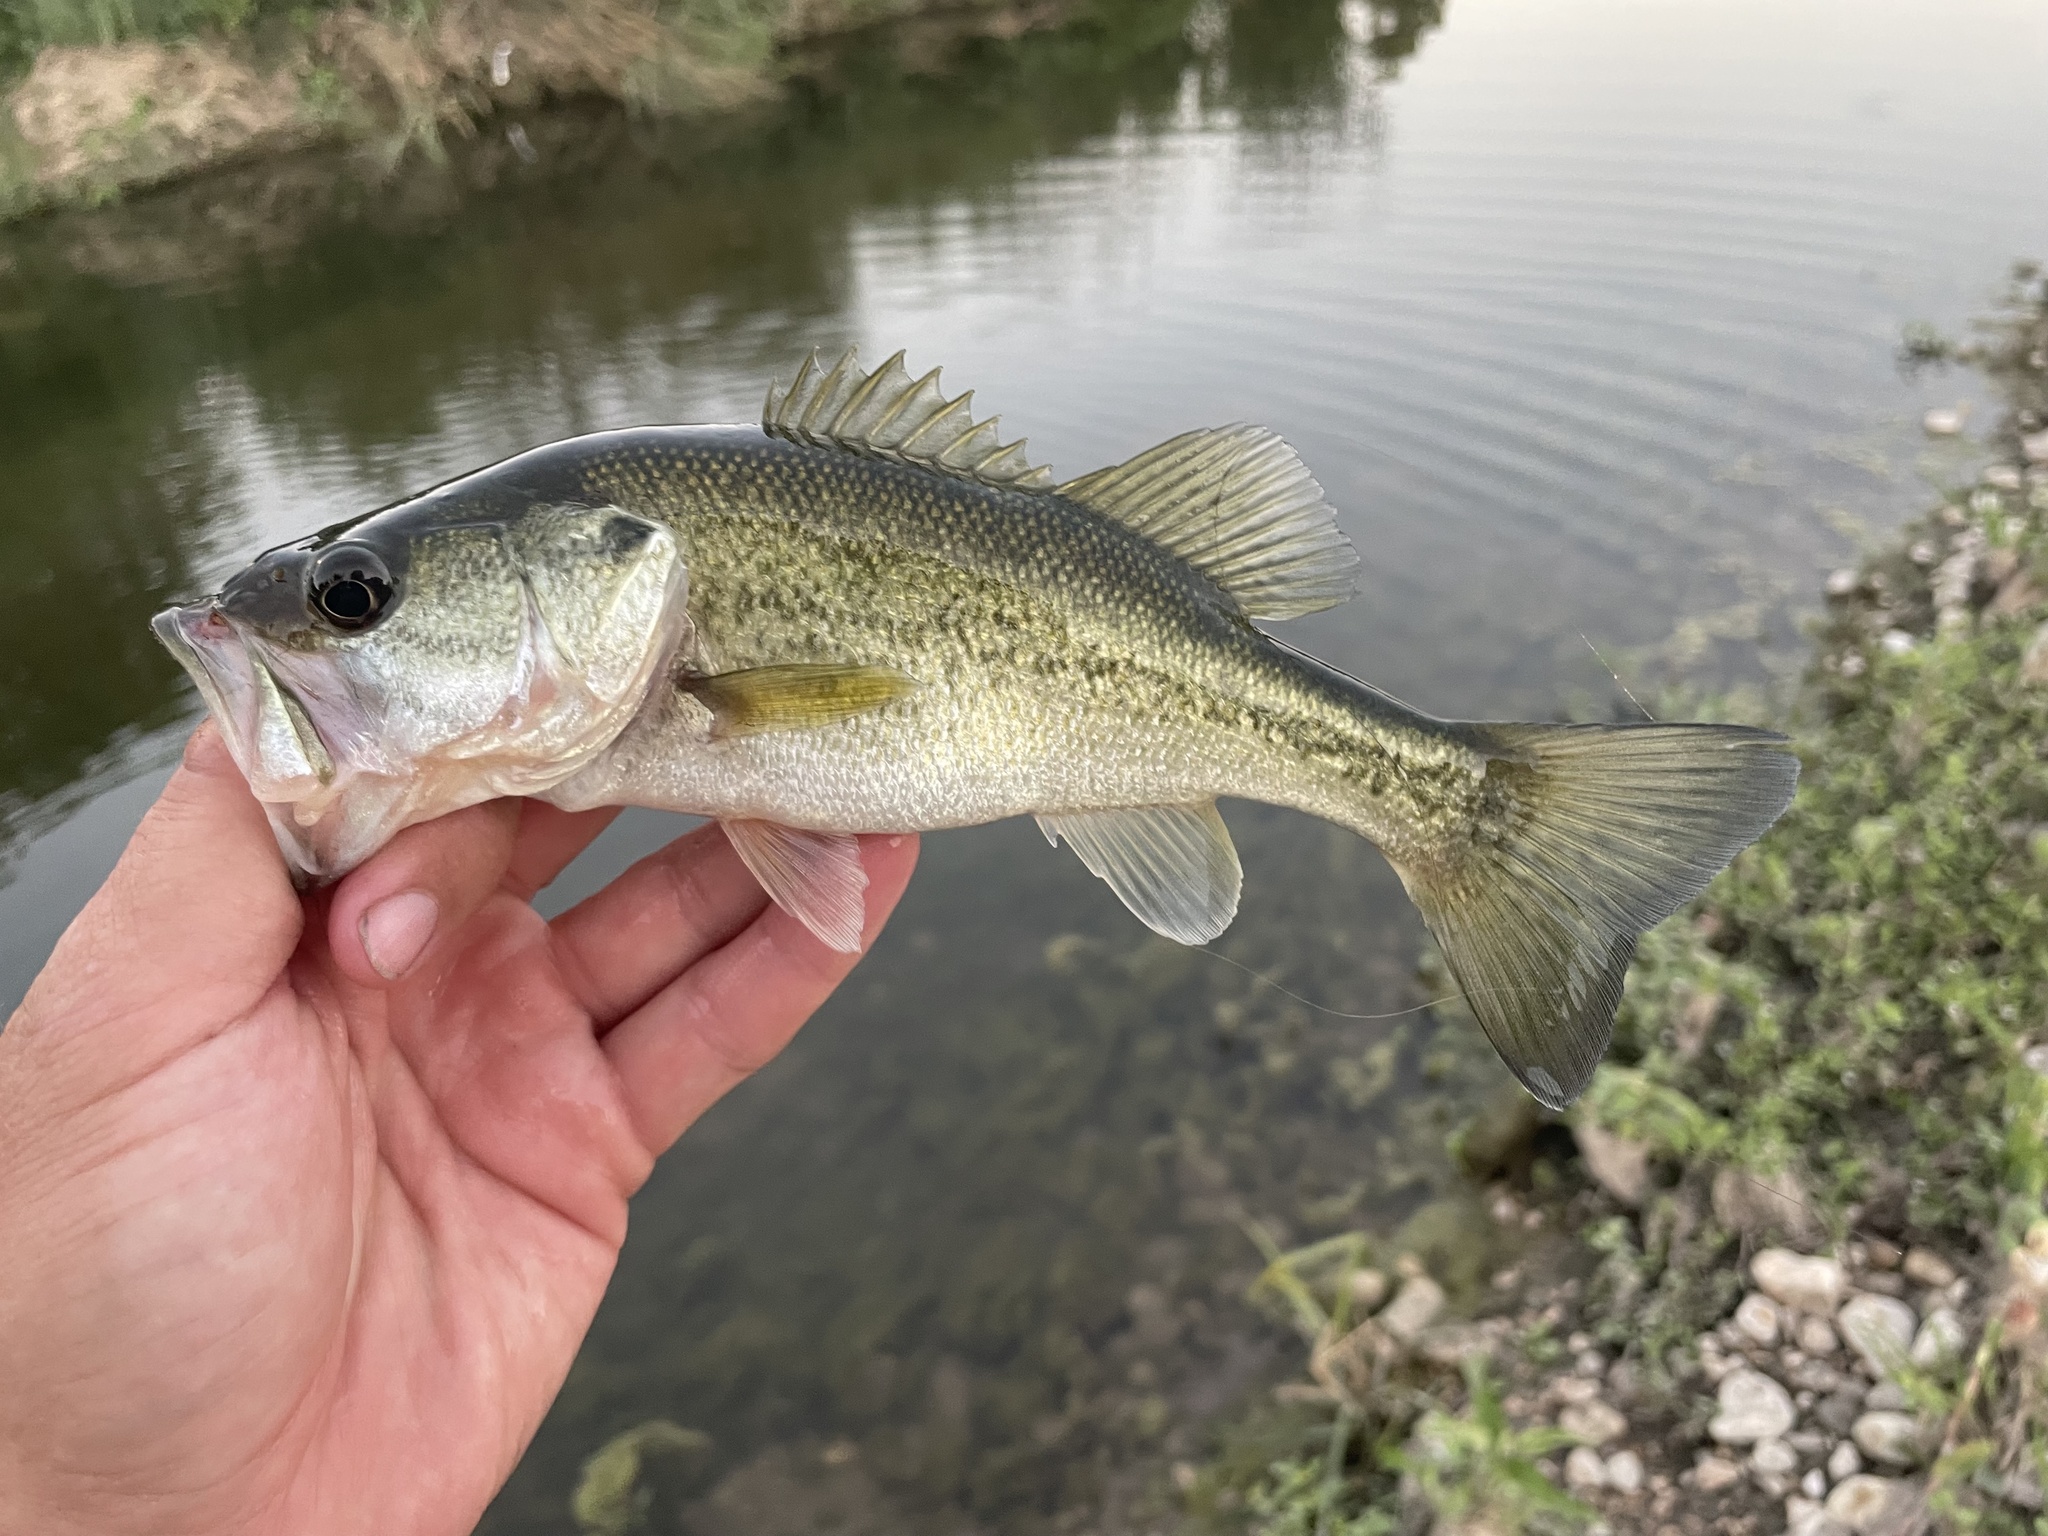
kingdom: Animalia
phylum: Chordata
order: Perciformes
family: Centrarchidae
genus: Micropterus
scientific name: Micropterus
